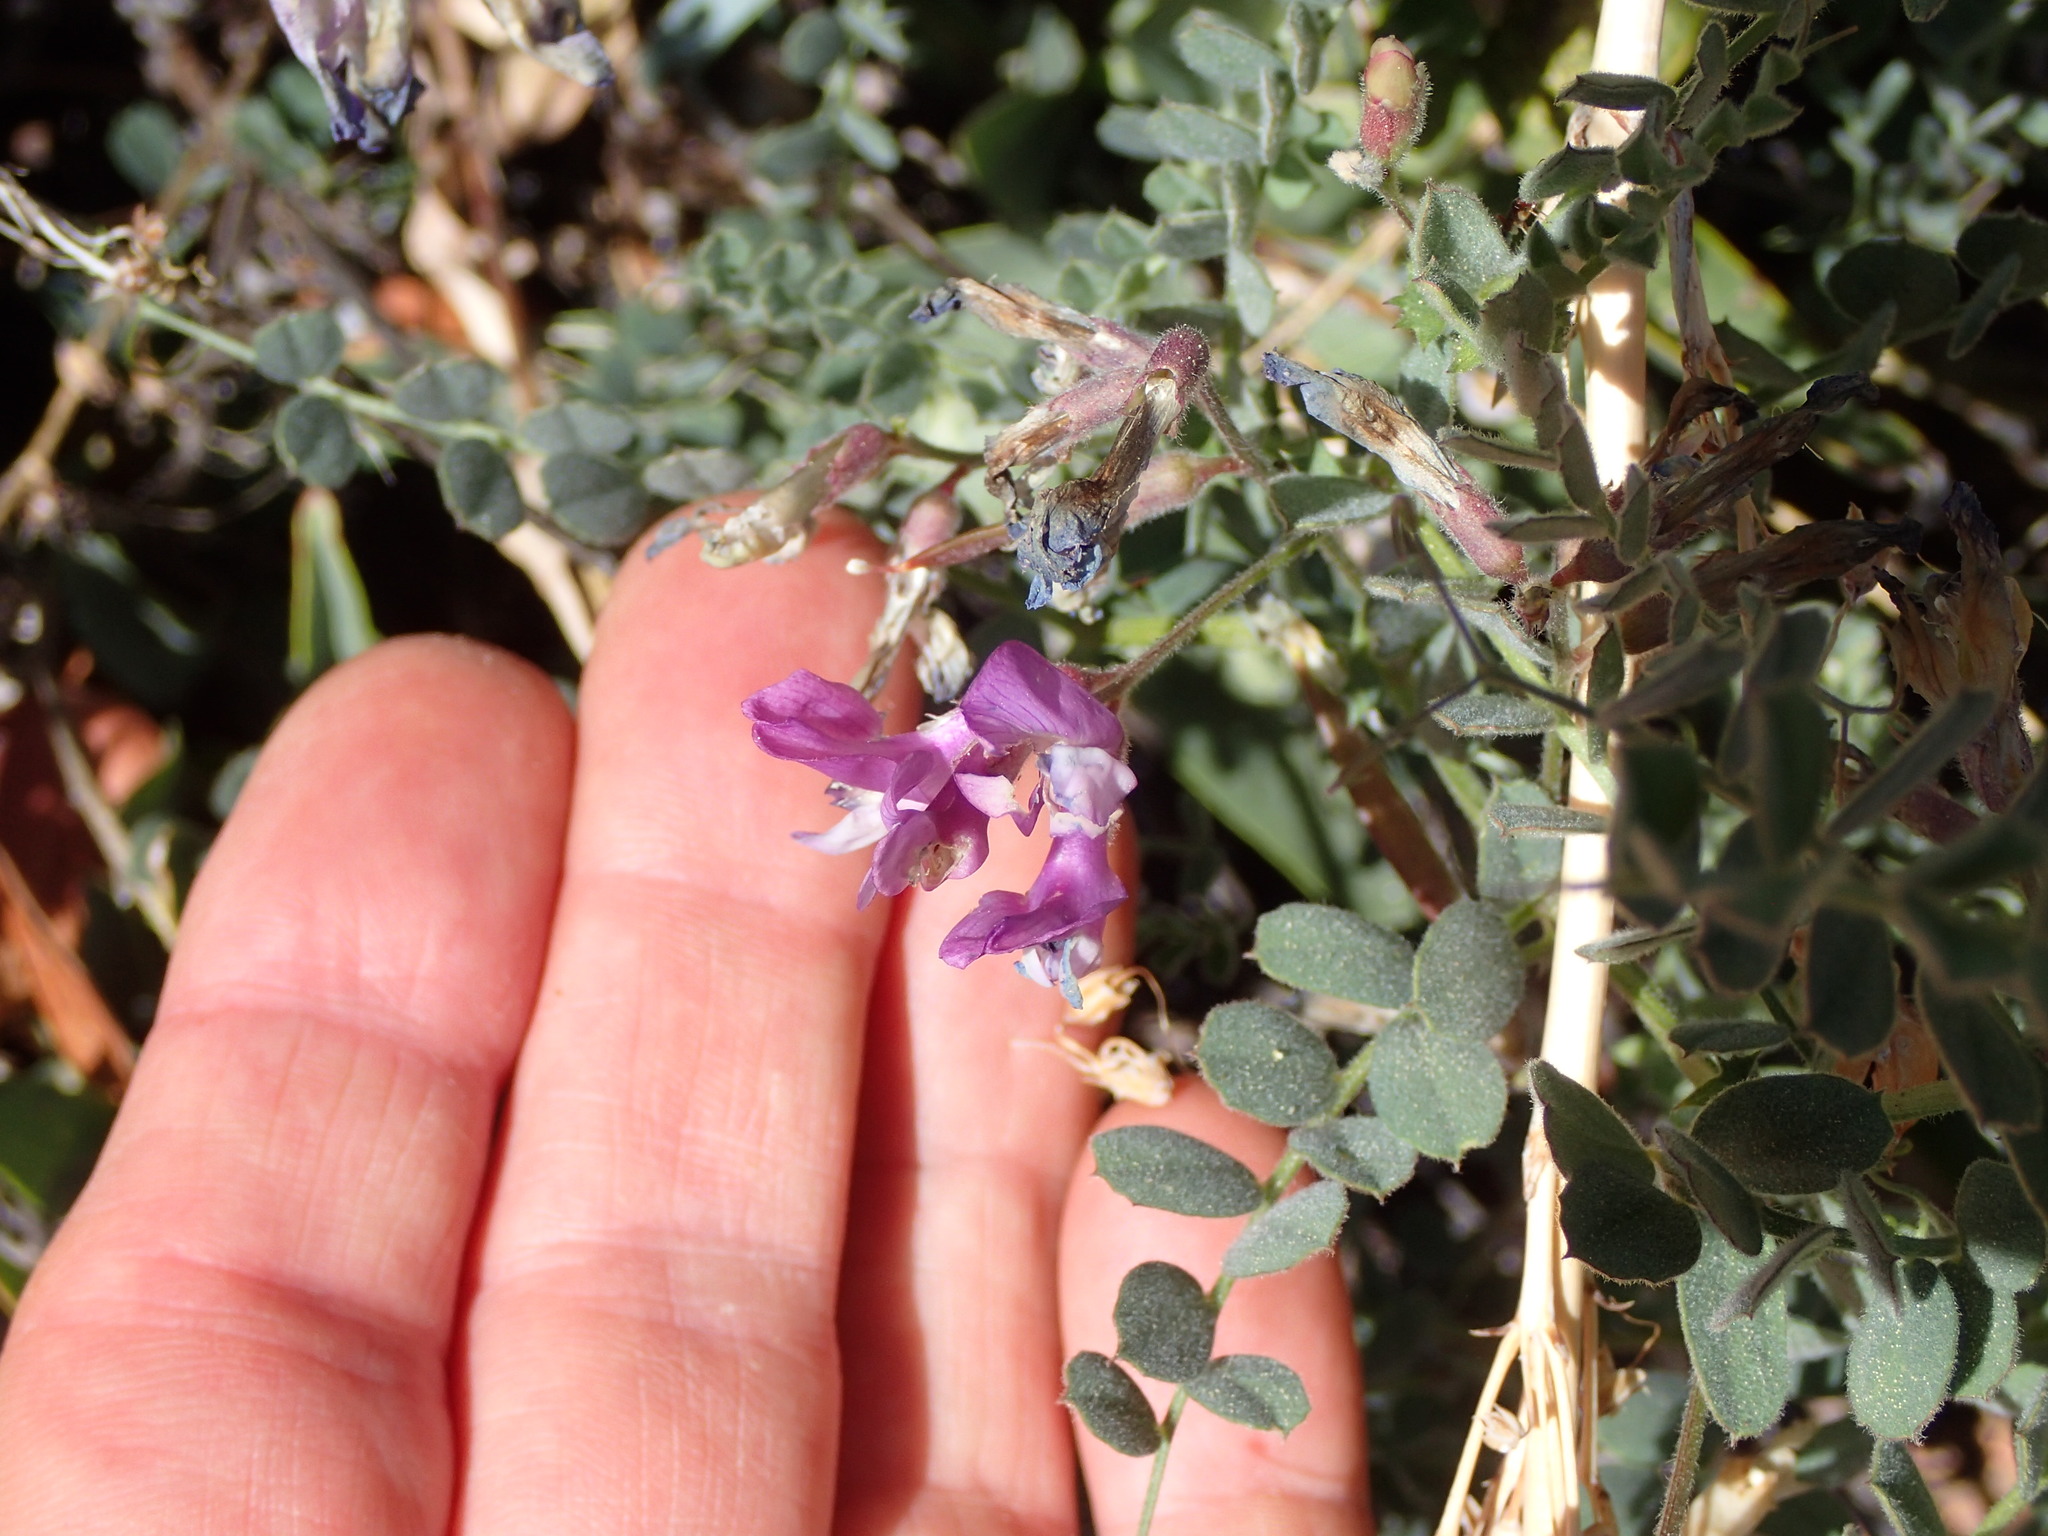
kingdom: Plantae
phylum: Tracheophyta
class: Magnoliopsida
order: Fabales
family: Fabaceae
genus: Astragalus
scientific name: Astragalus lentiginosus
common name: Freckled milkvetch
